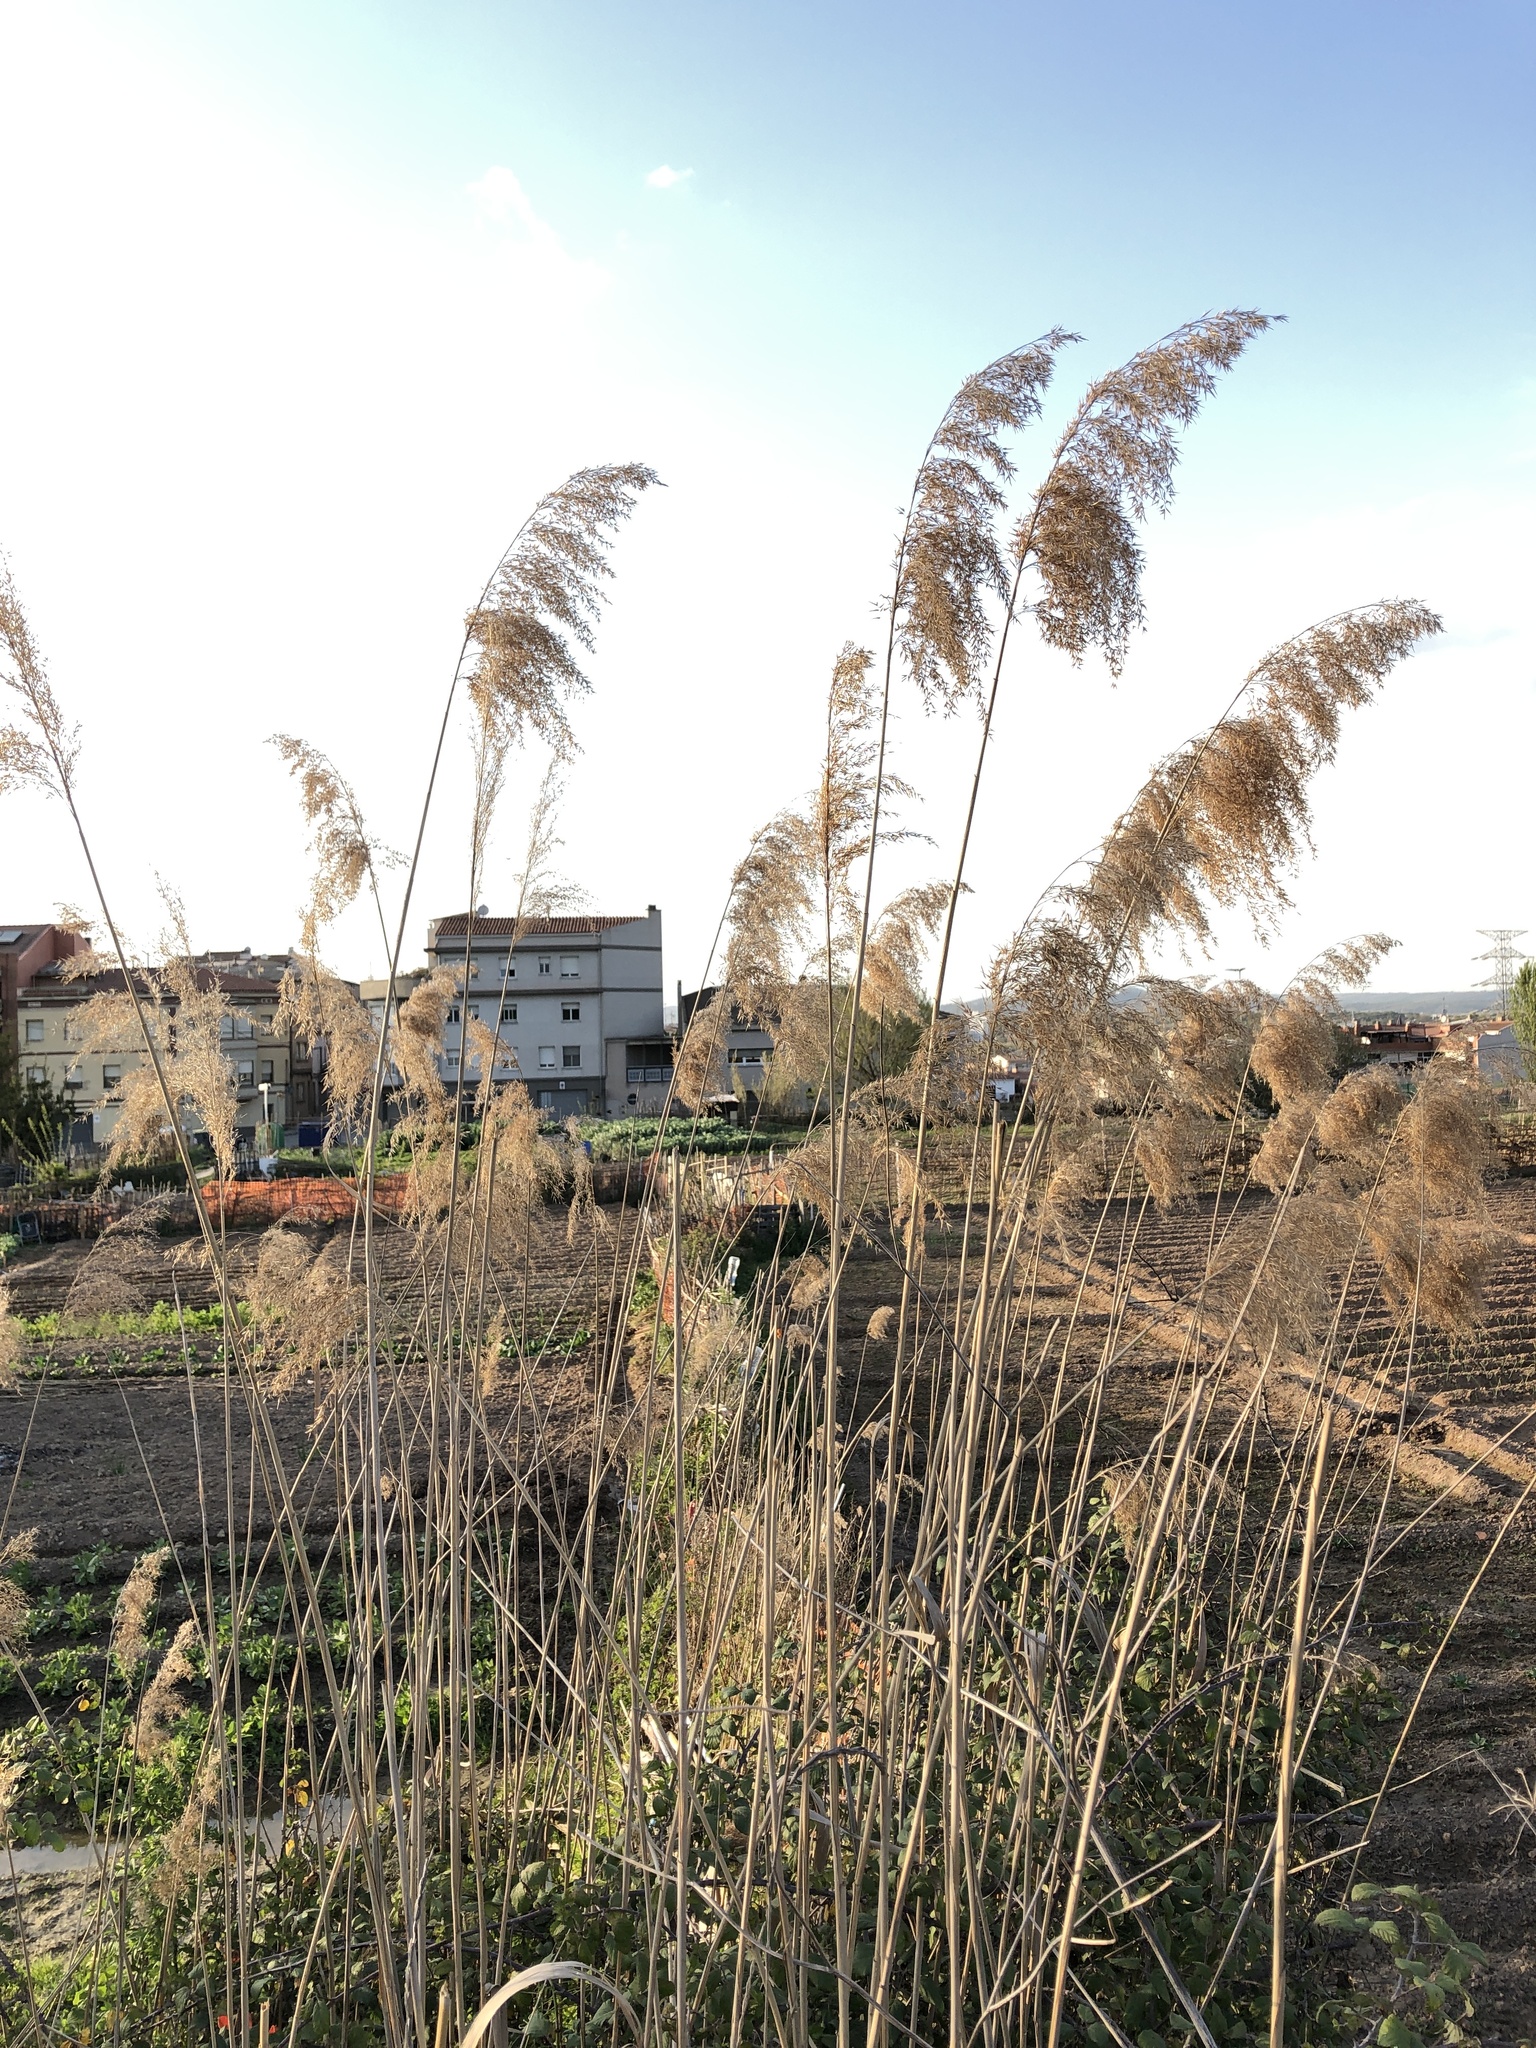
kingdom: Plantae
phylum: Tracheophyta
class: Liliopsida
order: Poales
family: Poaceae
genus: Phragmites
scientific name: Phragmites australis
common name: Common reed
